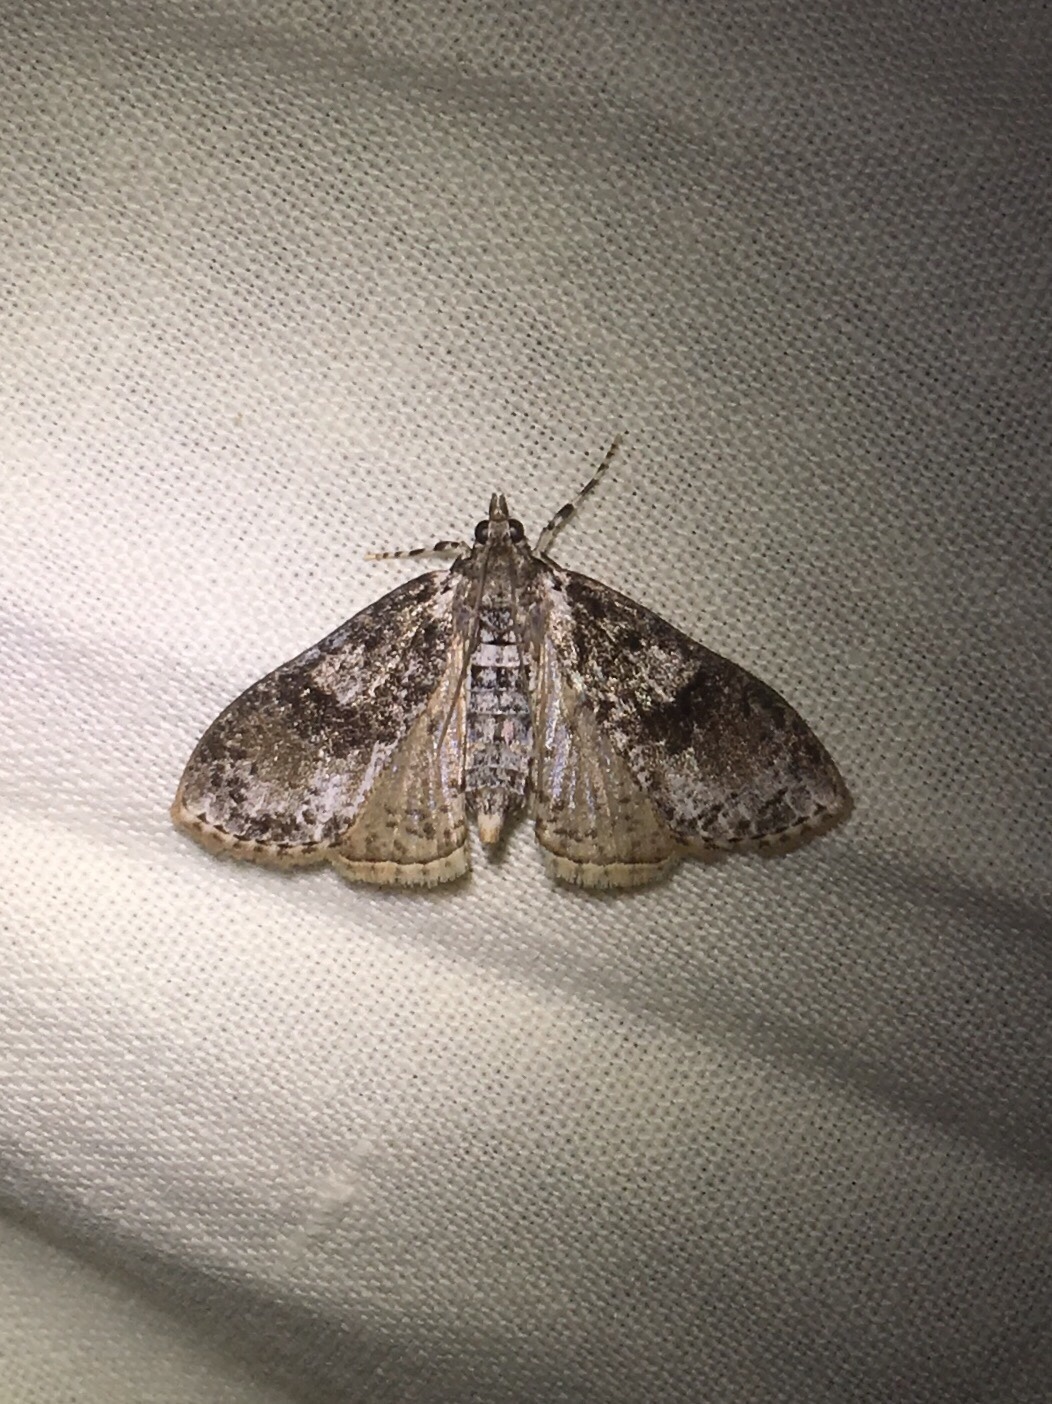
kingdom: Animalia
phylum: Arthropoda
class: Insecta
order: Lepidoptera
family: Crambidae
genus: Palpita
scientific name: Palpita magniferalis
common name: Splendid palpita moth
